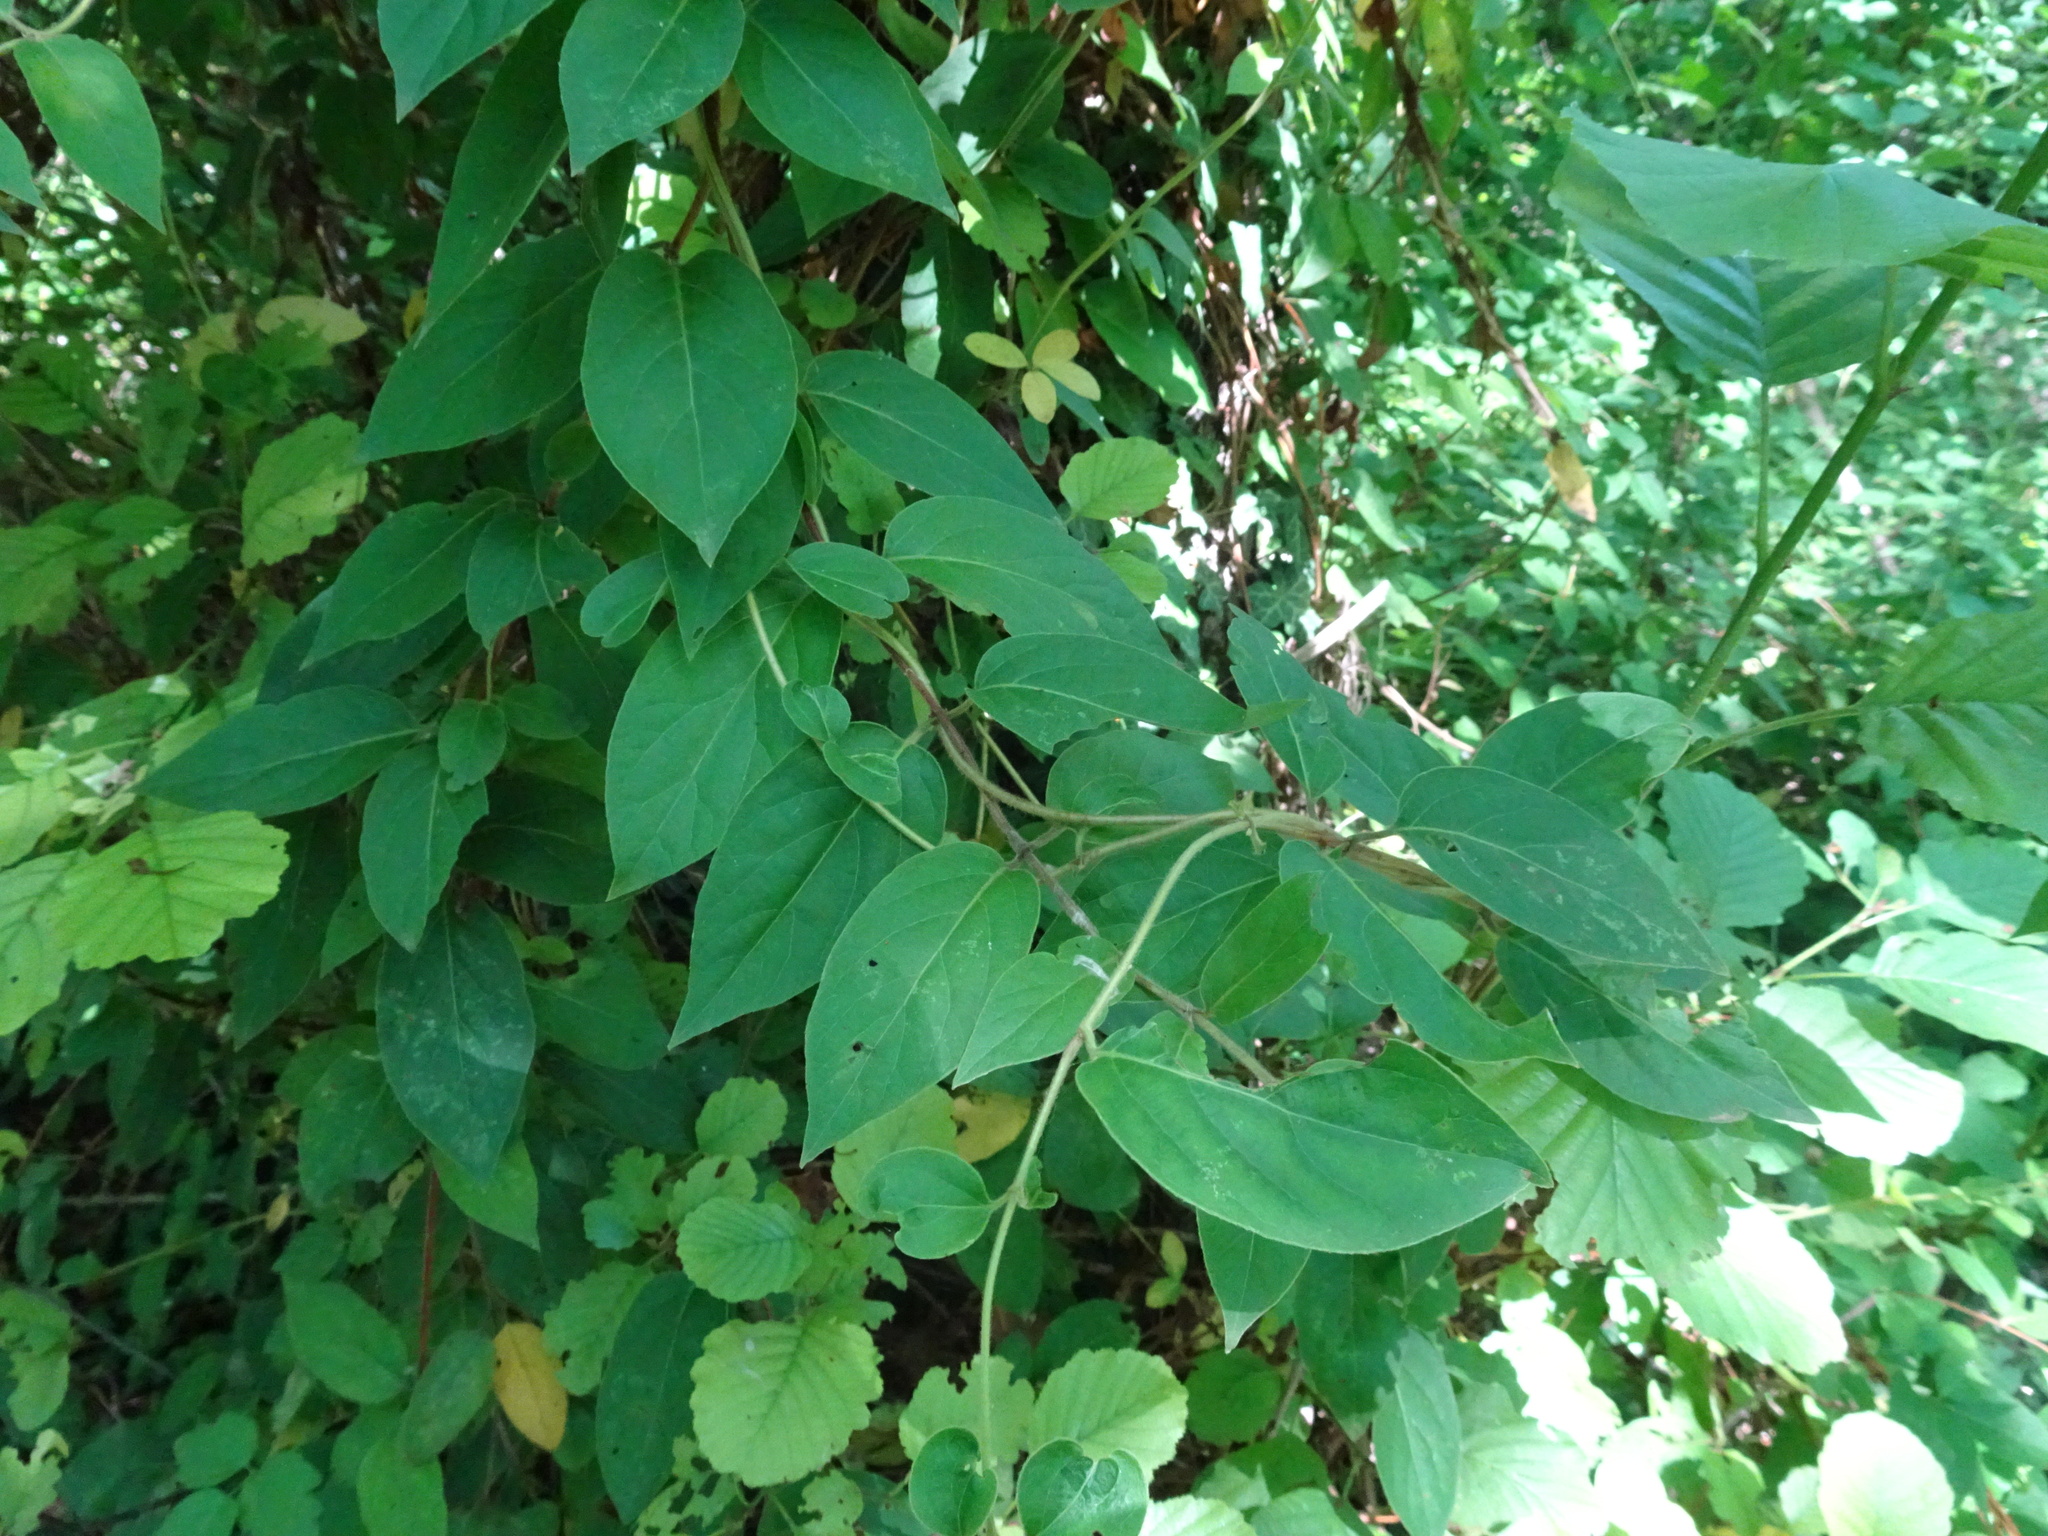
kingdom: Plantae
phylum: Tracheophyta
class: Magnoliopsida
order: Dipsacales
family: Caprifoliaceae
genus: Lonicera
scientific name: Lonicera japonica
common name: Japanese honeysuckle
